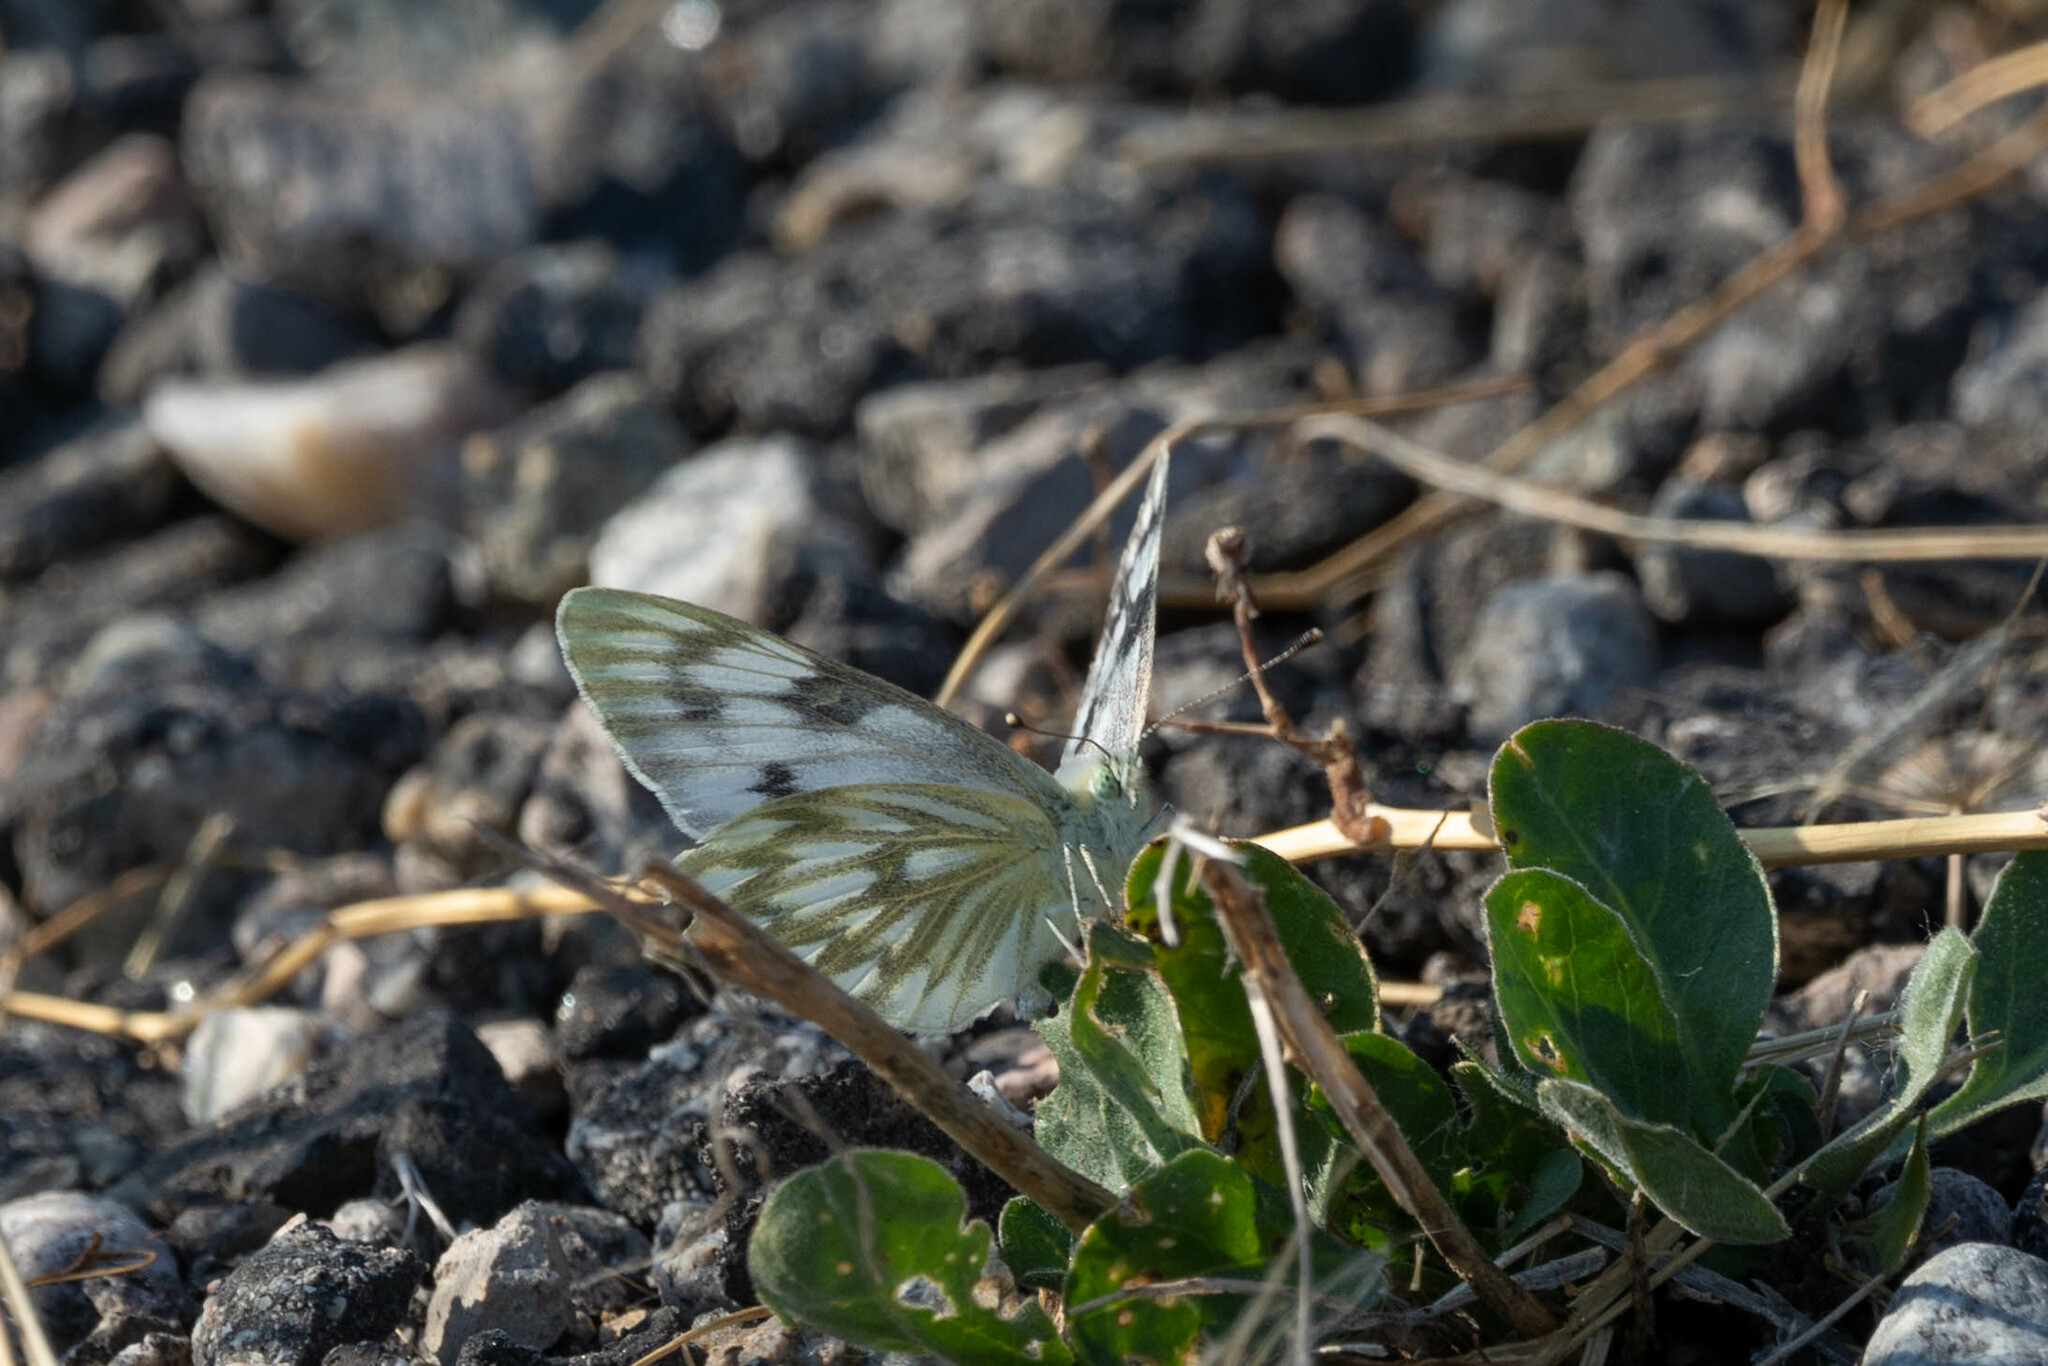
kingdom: Animalia
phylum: Arthropoda
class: Insecta
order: Lepidoptera
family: Pieridae
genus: Pontia
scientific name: Pontia occidentalis
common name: Western white
